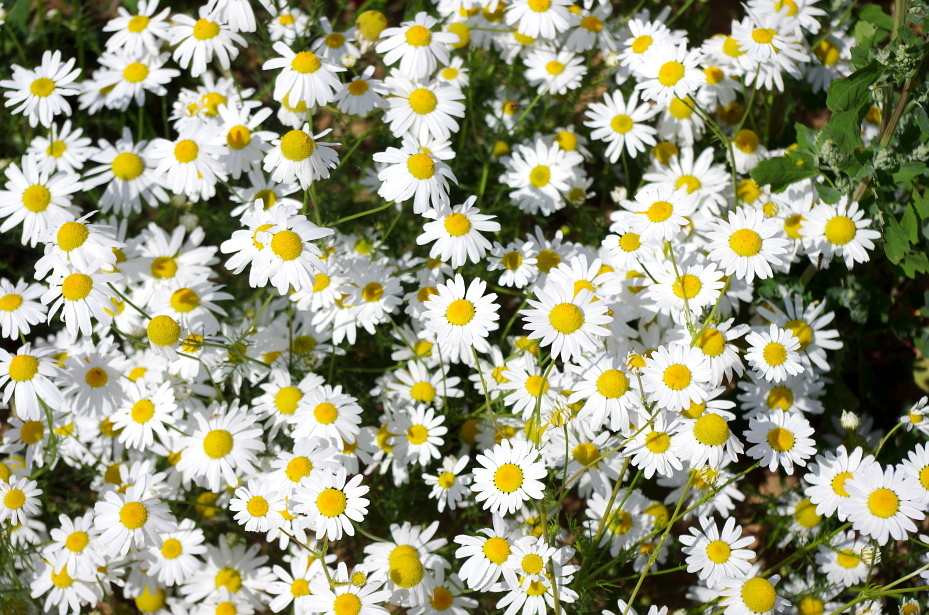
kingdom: Plantae
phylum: Tracheophyta
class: Magnoliopsida
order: Asterales
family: Asteraceae
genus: Tripleurospermum
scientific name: Tripleurospermum inodorum
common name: Scentless mayweed
